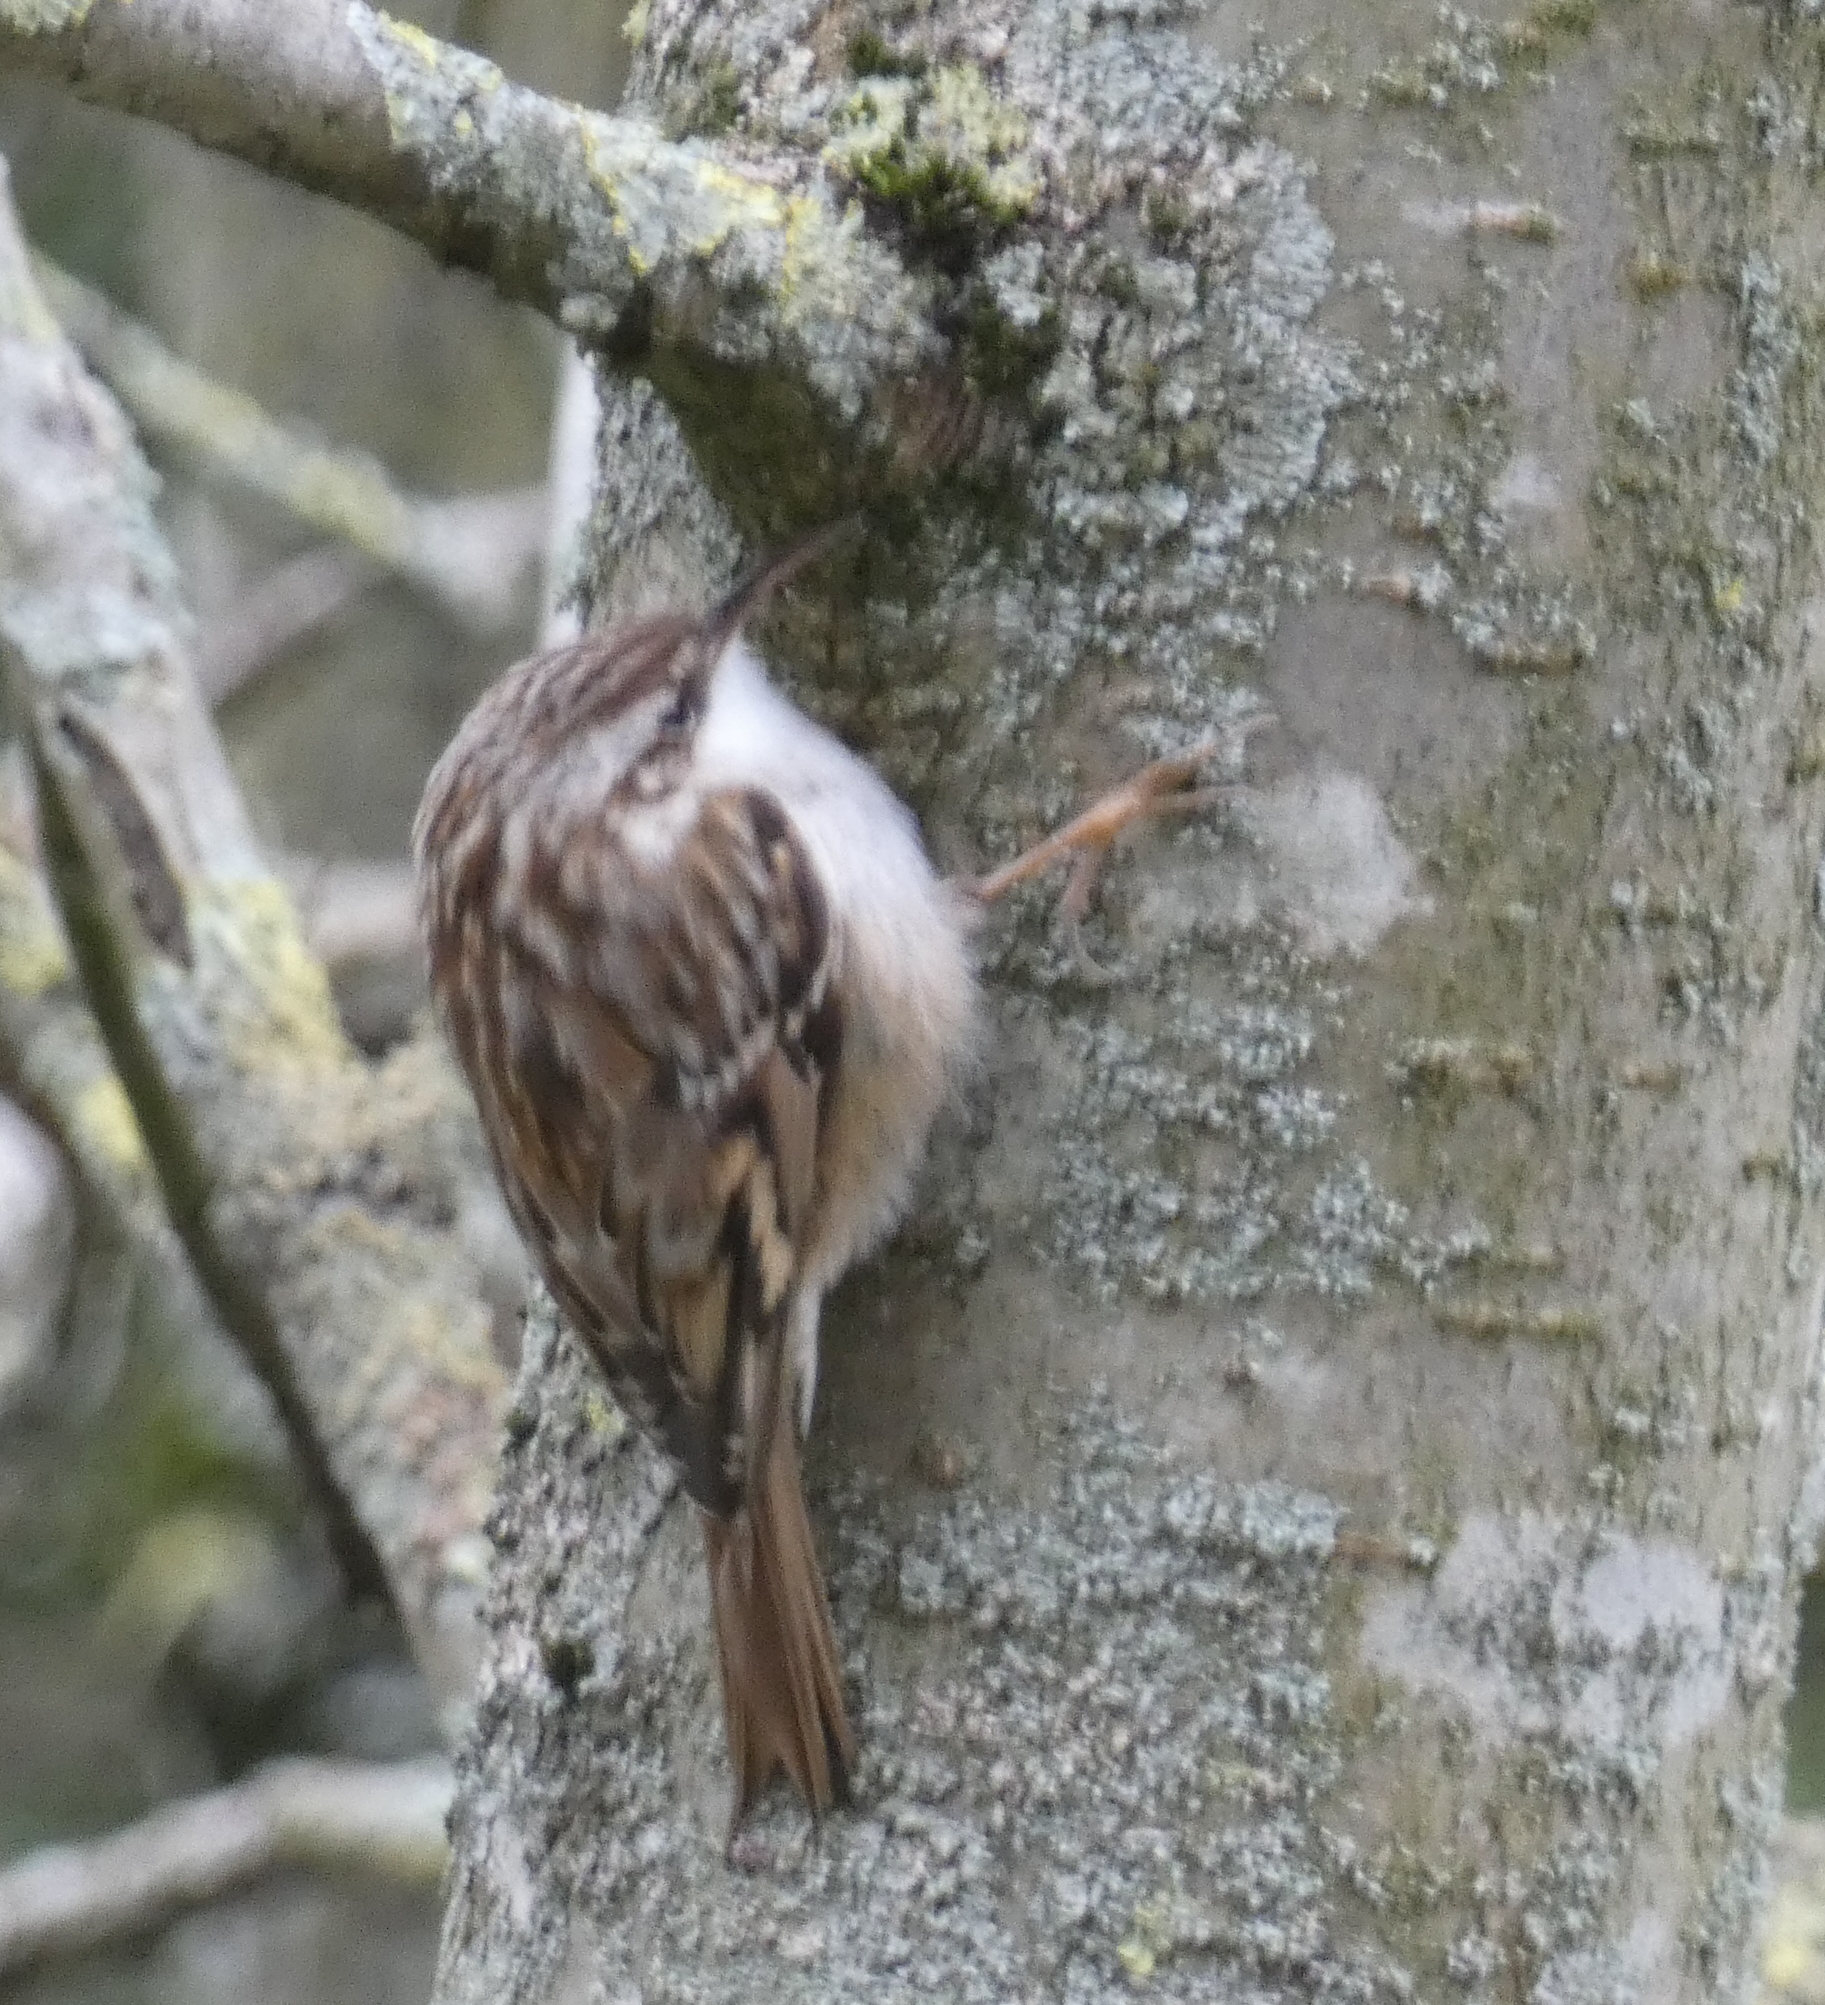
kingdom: Animalia
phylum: Chordata
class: Aves
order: Passeriformes
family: Certhiidae
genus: Certhia
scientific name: Certhia brachydactyla
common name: Short-toed treecreeper
